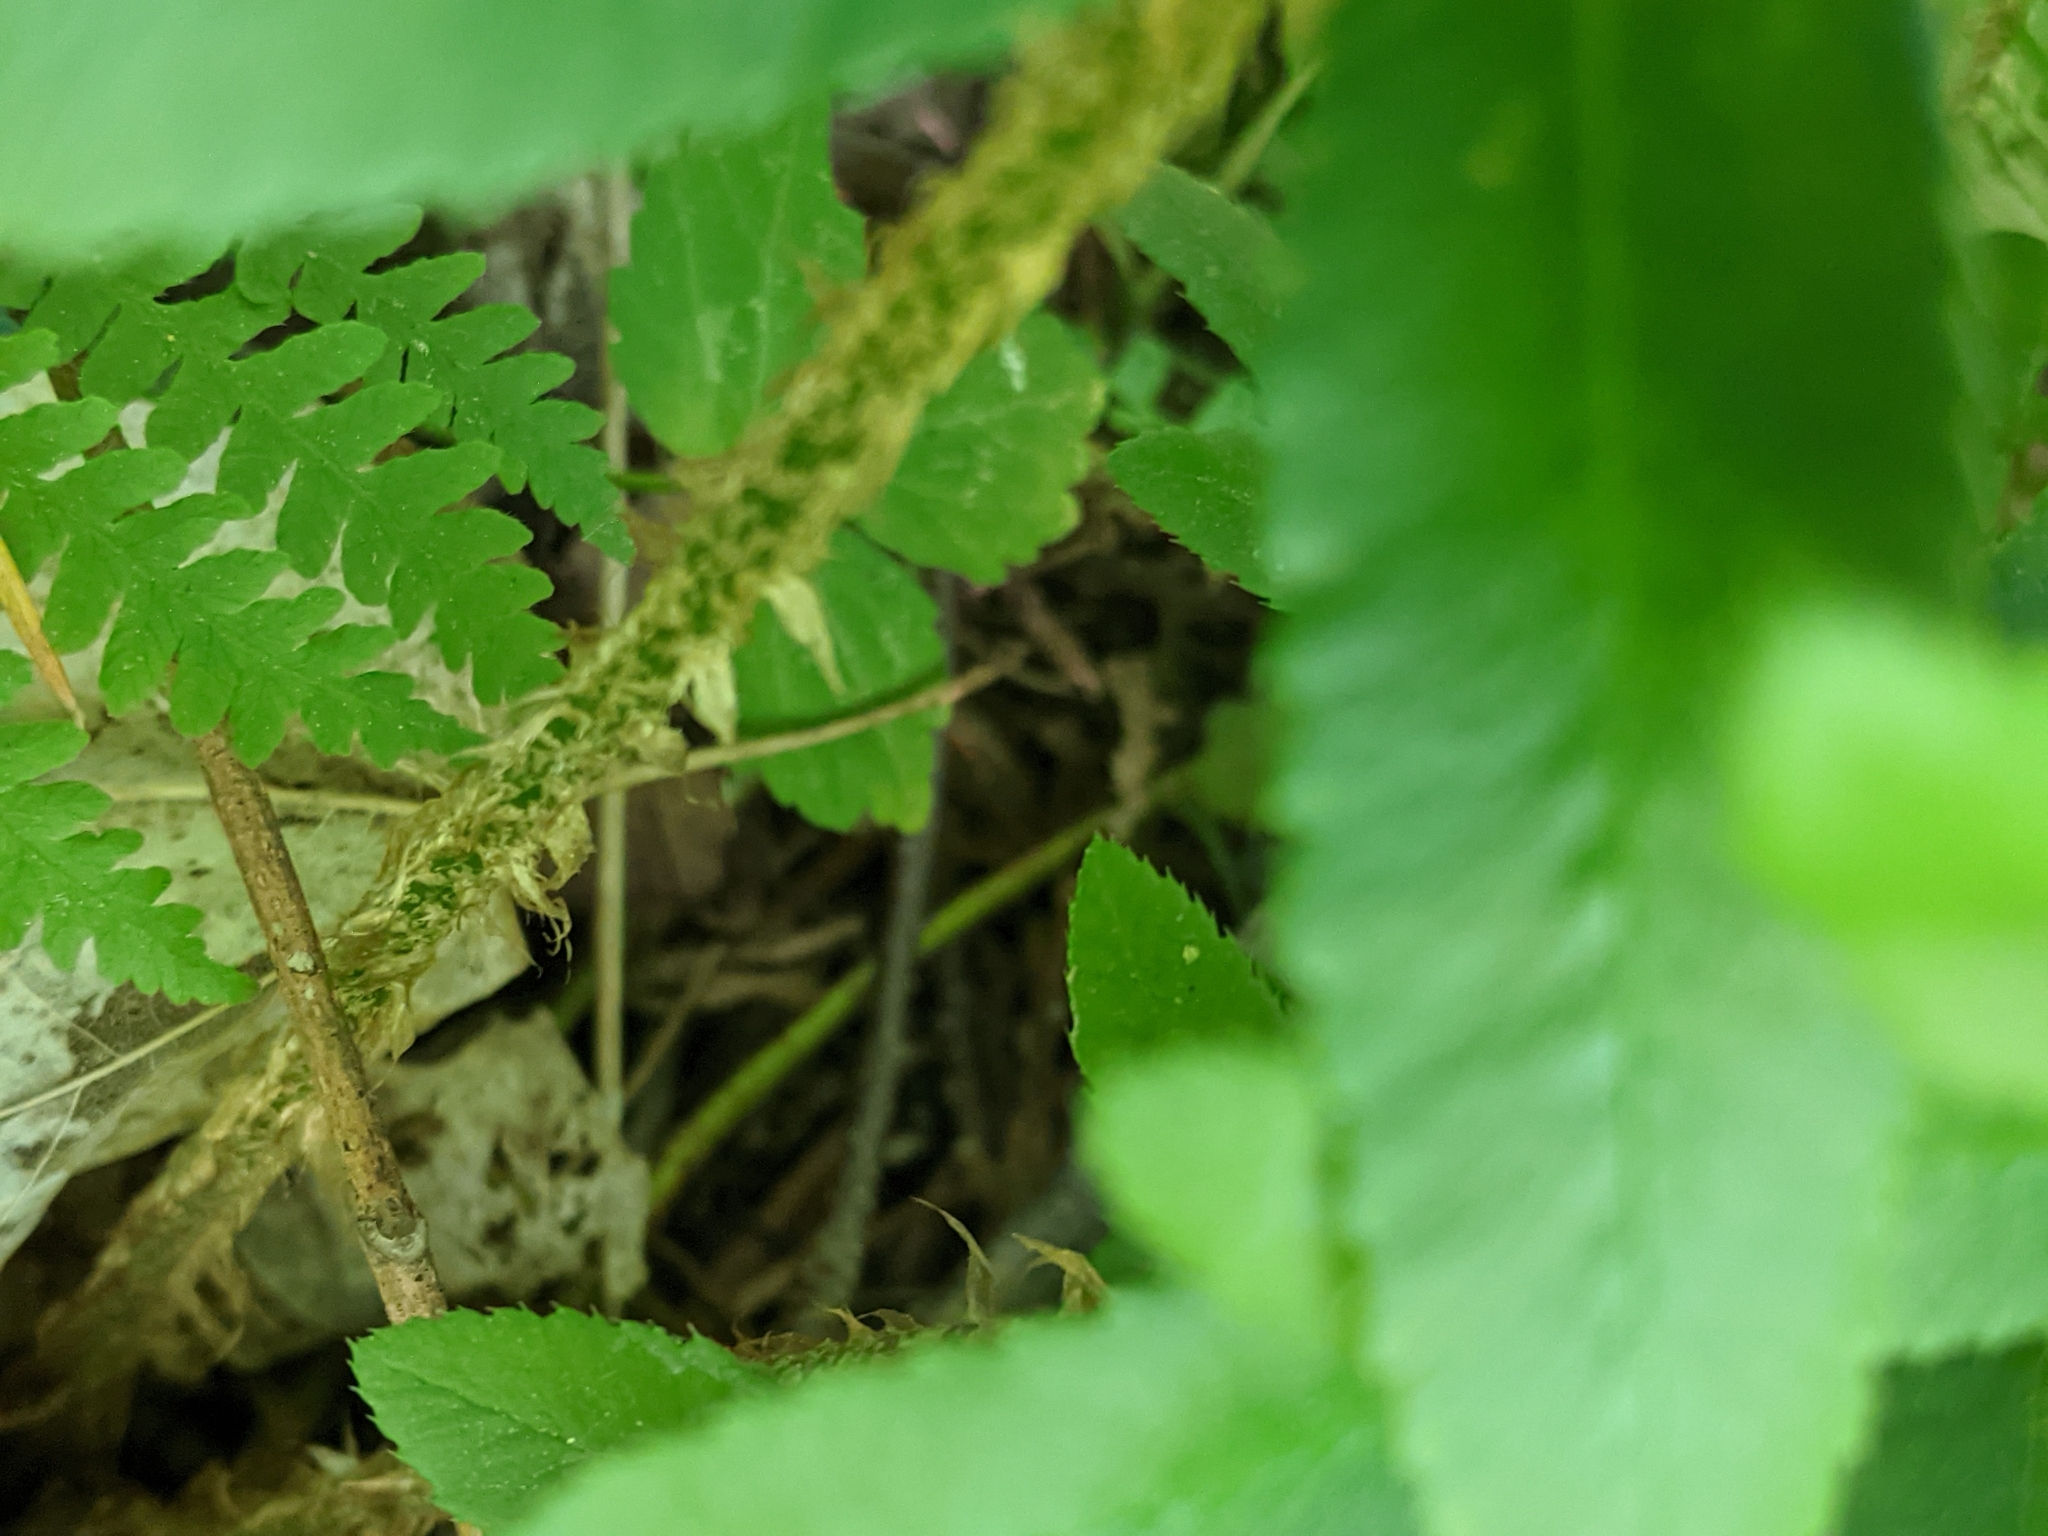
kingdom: Plantae
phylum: Tracheophyta
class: Polypodiopsida
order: Polypodiales
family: Dryopteridaceae
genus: Polystichum
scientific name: Polystichum acrostichoides
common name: Christmas fern
